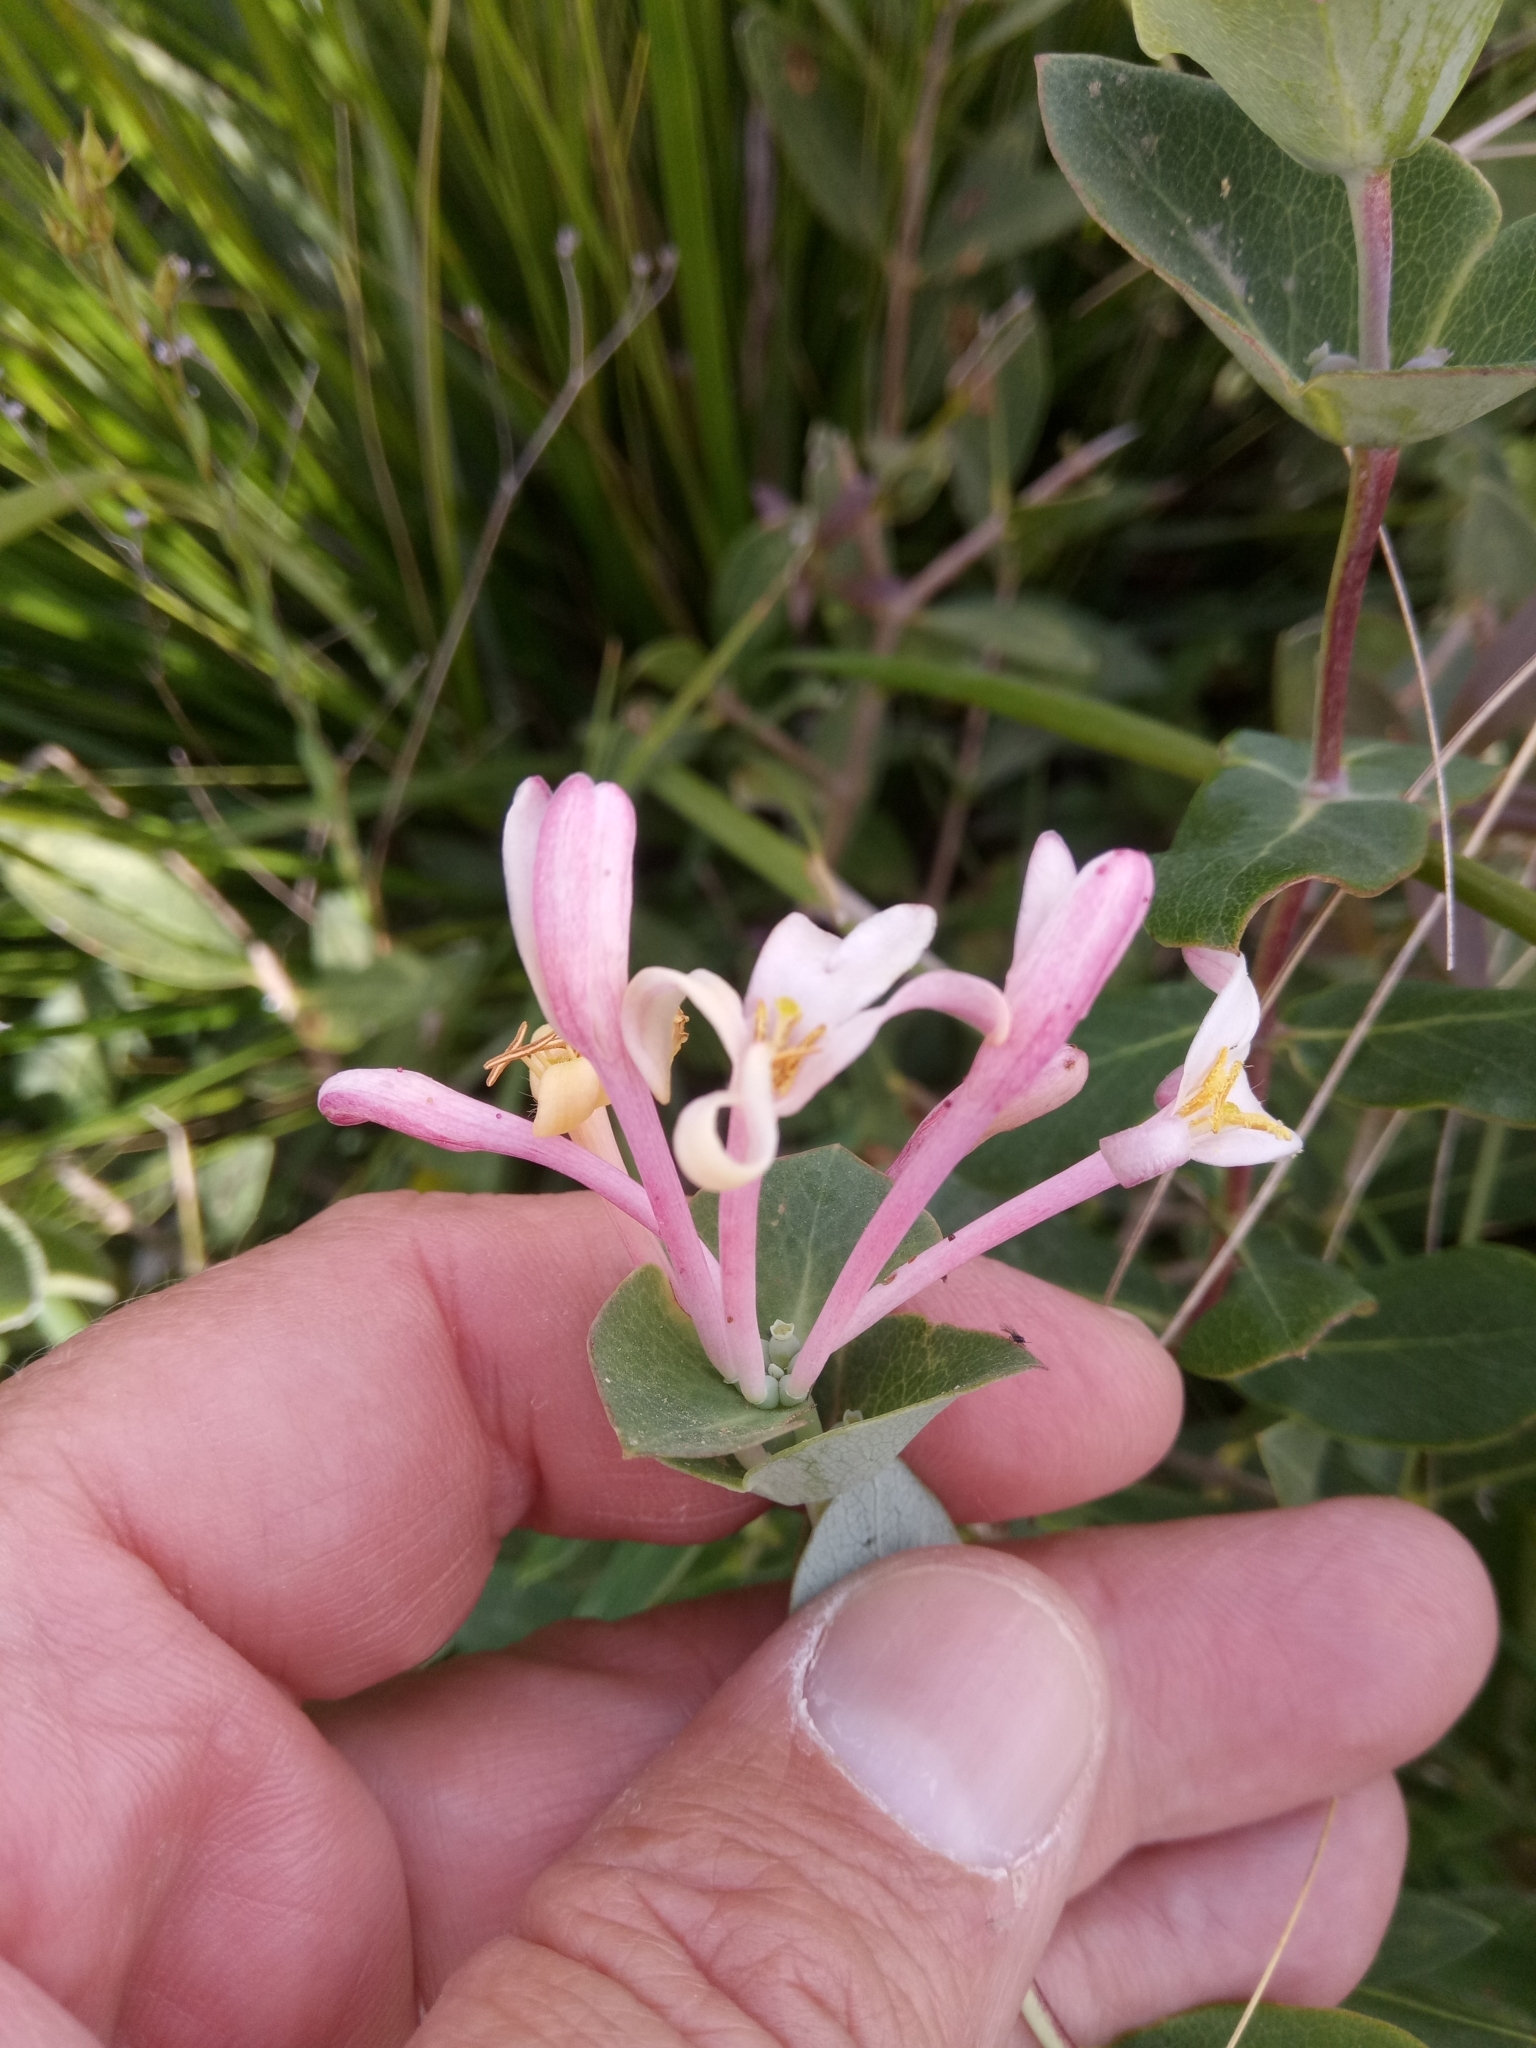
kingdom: Plantae
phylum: Tracheophyta
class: Magnoliopsida
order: Dipsacales
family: Caprifoliaceae
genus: Lonicera
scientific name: Lonicera implexa
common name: Minorca honeysuckle
